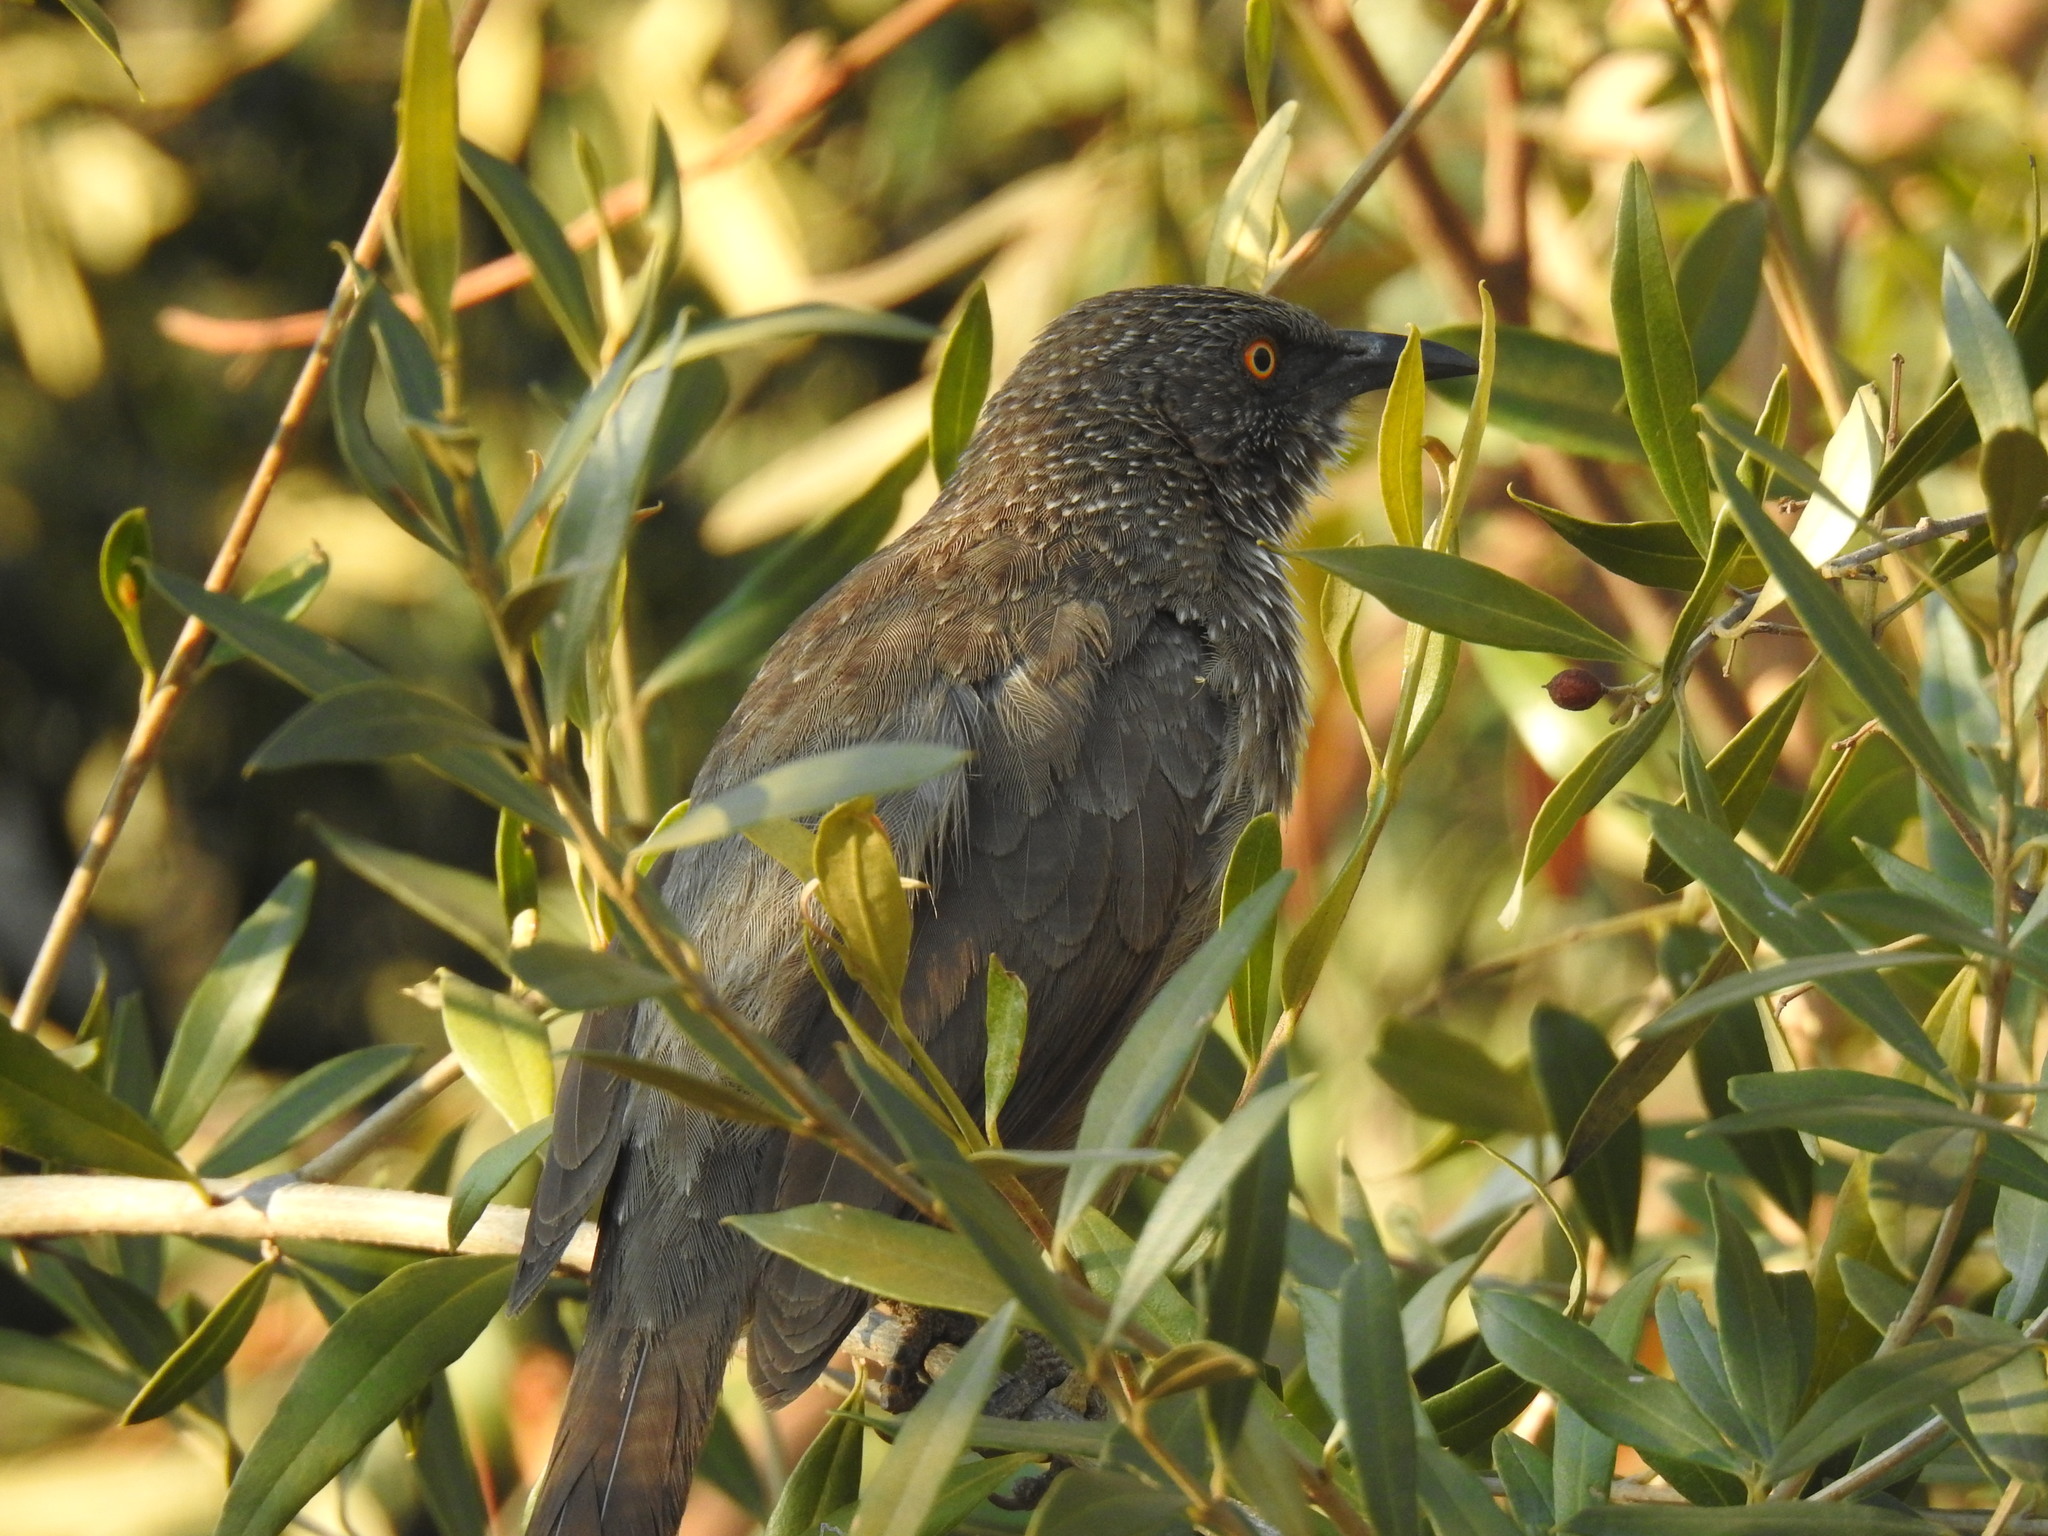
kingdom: Animalia
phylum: Chordata
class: Aves
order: Passeriformes
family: Leiothrichidae
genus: Turdoides
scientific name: Turdoides jardineii
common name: Arrow-marked babbler
